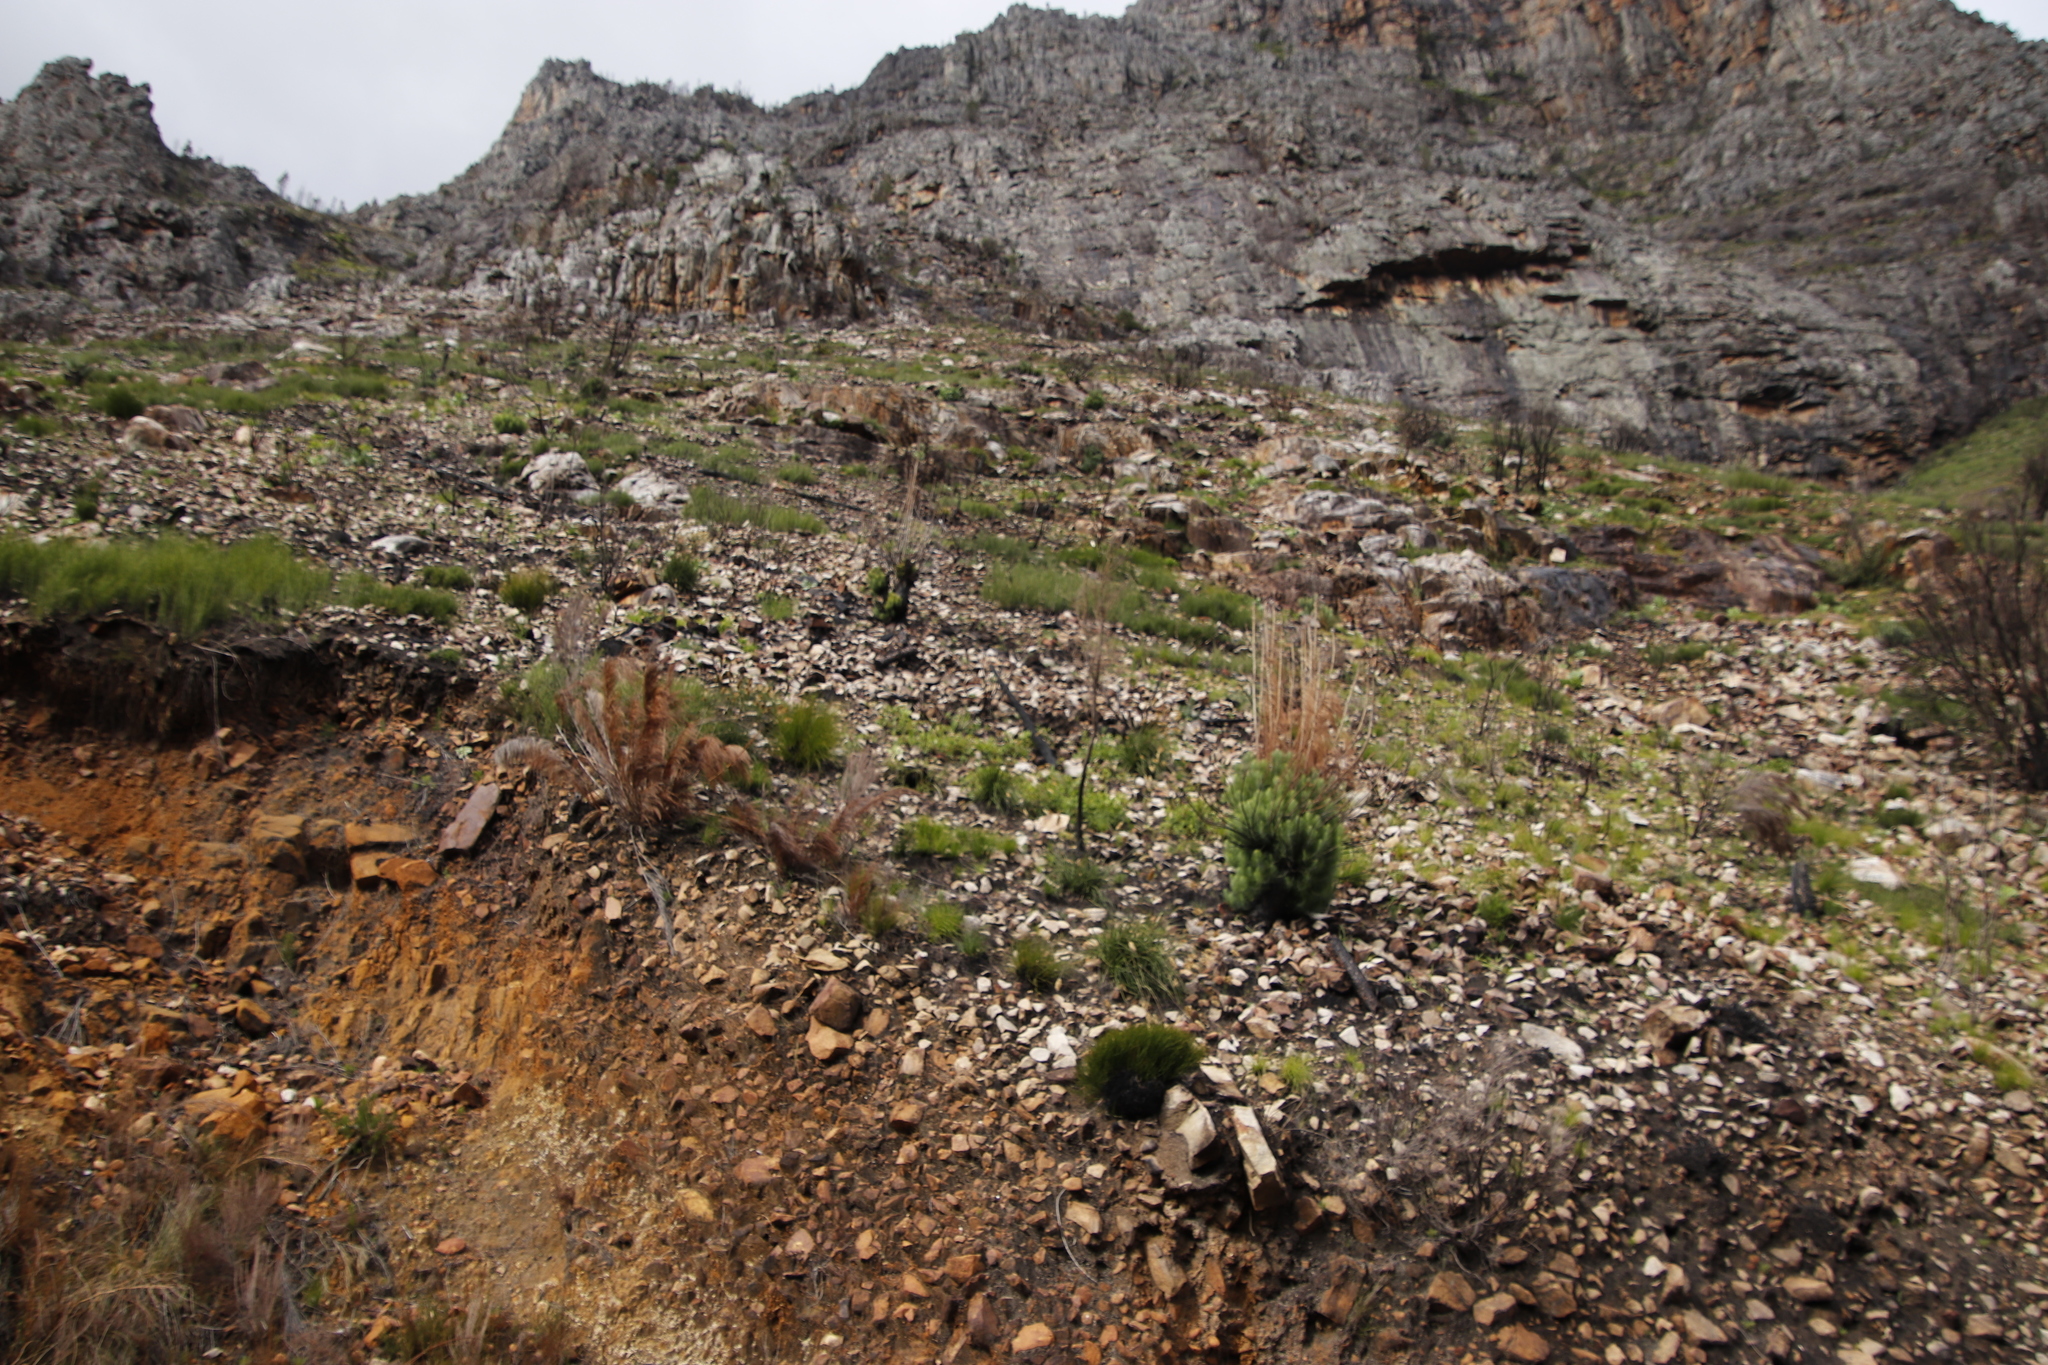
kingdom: Plantae
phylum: Tracheophyta
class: Pinopsida
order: Pinales
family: Pinaceae
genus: Pinus
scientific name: Pinus canariensis
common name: Canary islands pine
